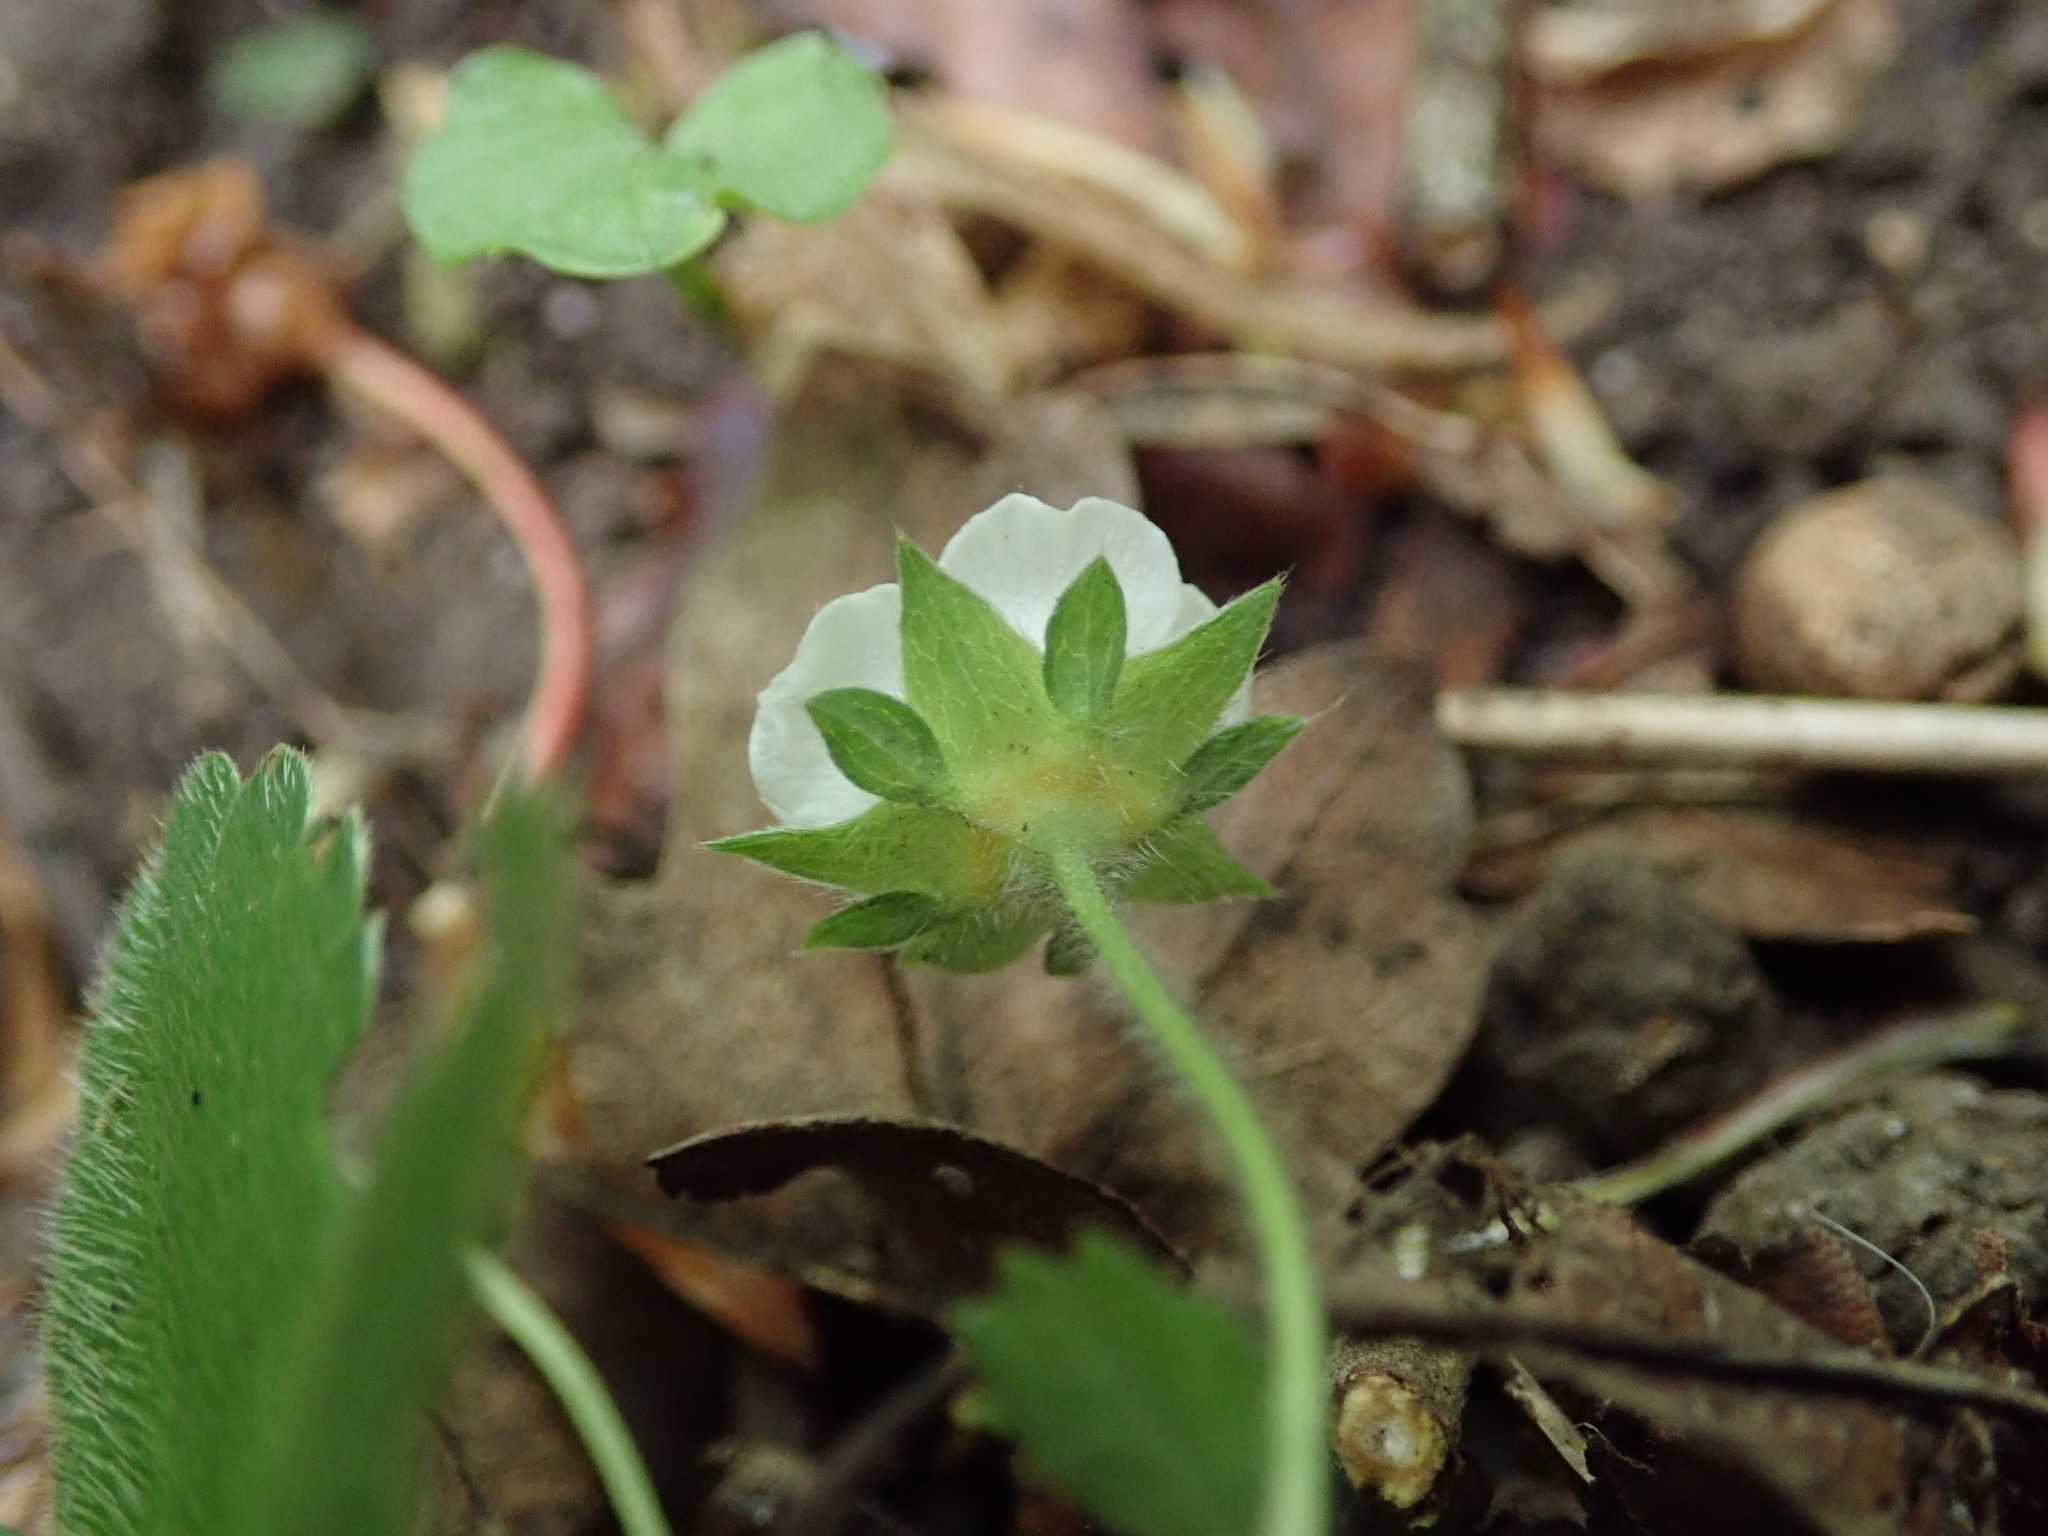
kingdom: Plantae
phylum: Tracheophyta
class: Magnoliopsida
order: Rosales
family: Rosaceae
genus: Potentilla
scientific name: Potentilla sterilis
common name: Barren strawberry
